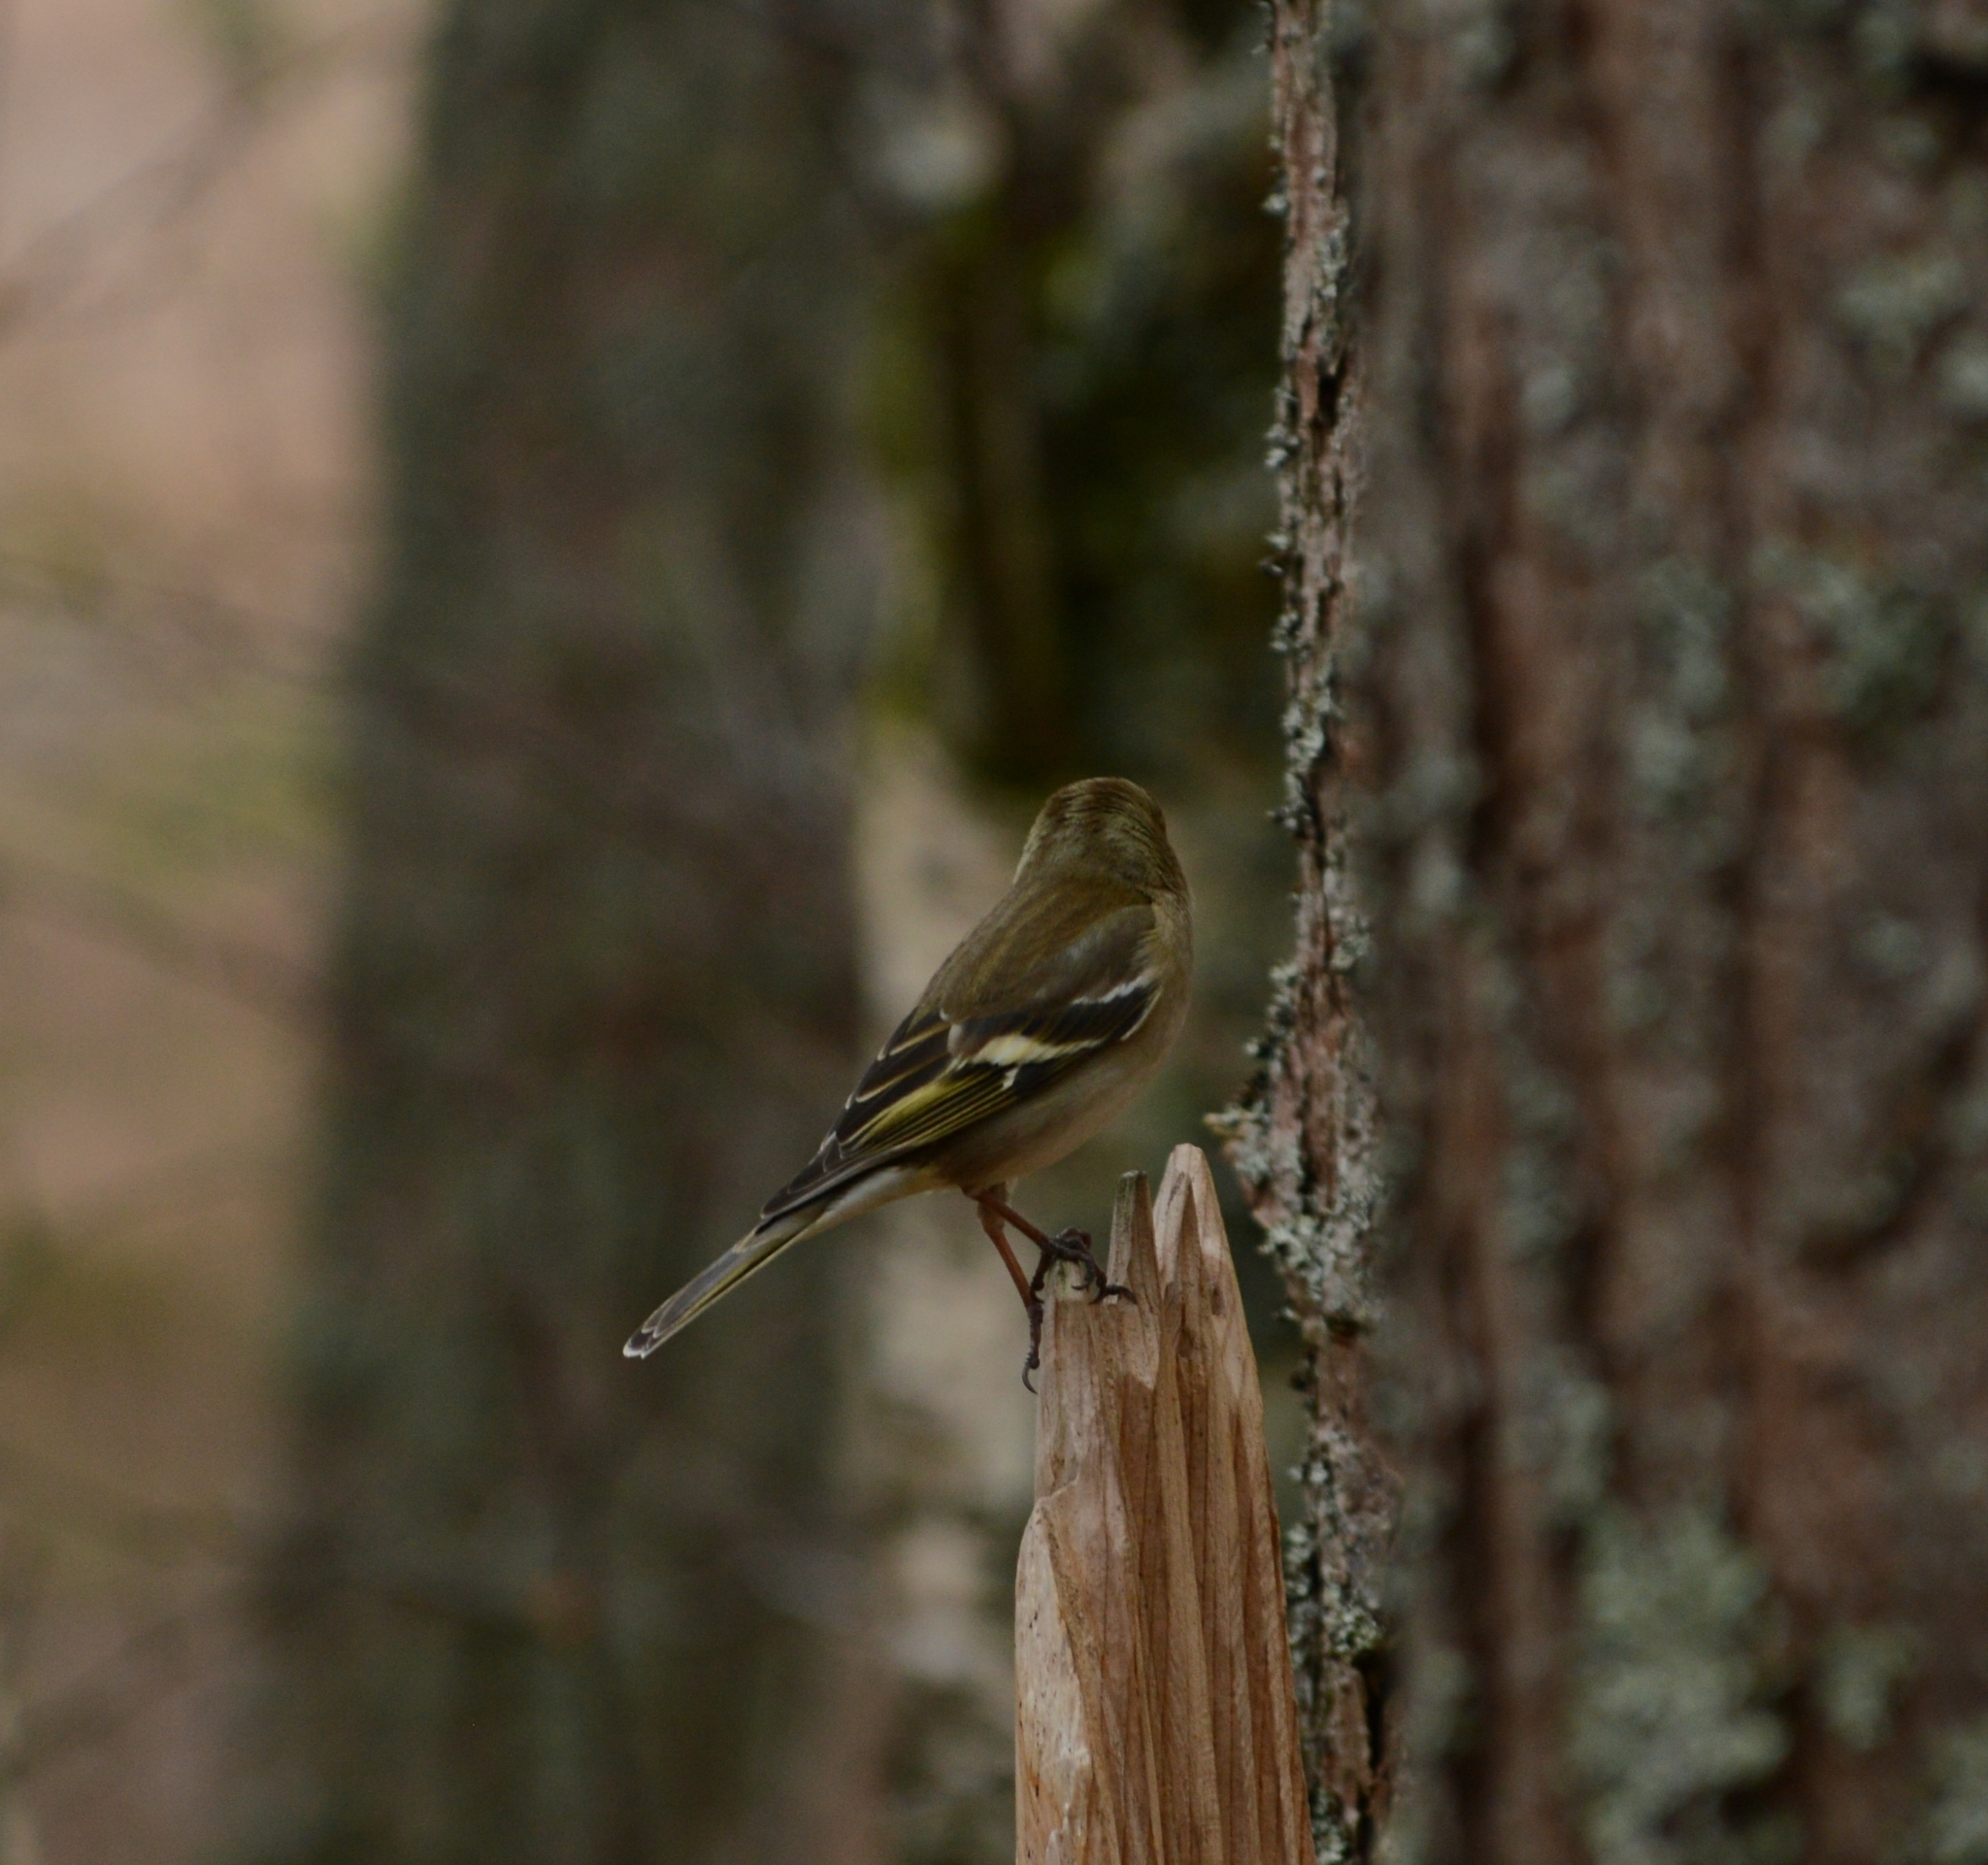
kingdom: Animalia
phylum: Chordata
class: Aves
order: Passeriformes
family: Fringillidae
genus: Fringilla
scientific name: Fringilla coelebs
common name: Common chaffinch
